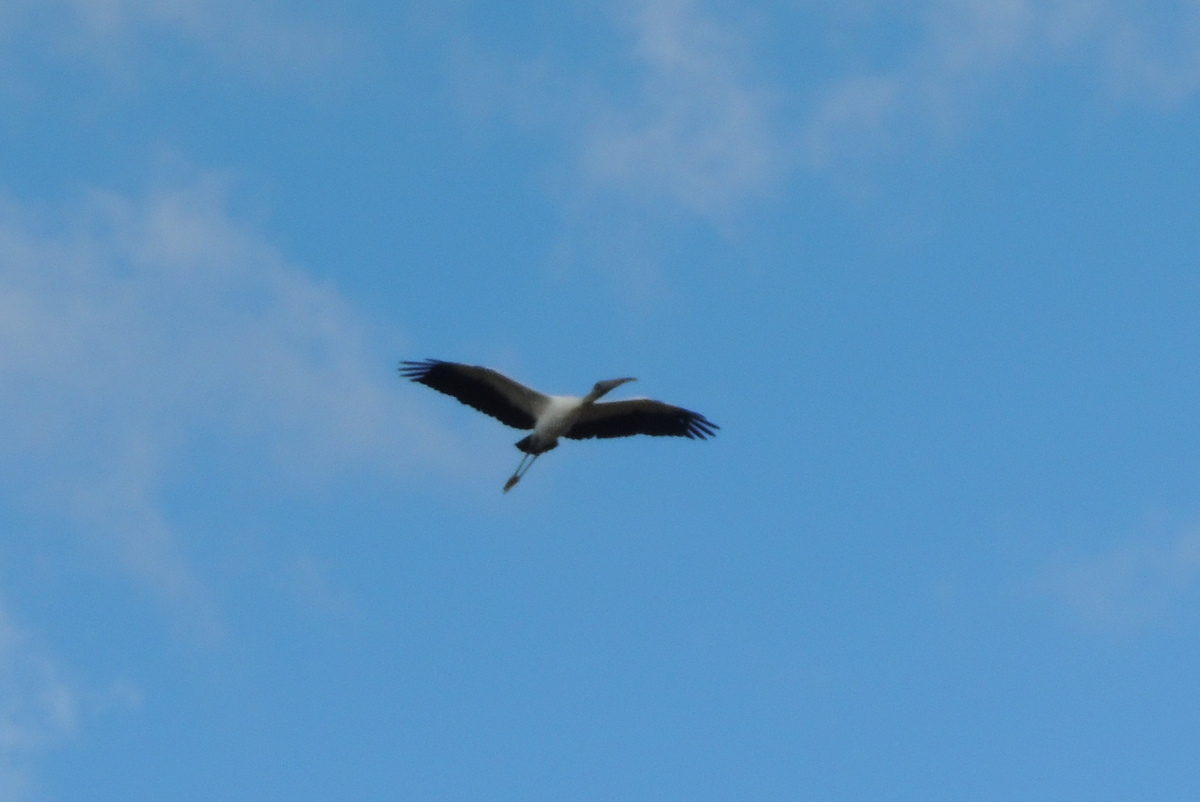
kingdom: Animalia
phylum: Chordata
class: Aves
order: Ciconiiformes
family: Ciconiidae
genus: Mycteria
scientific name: Mycteria americana
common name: Wood stork
